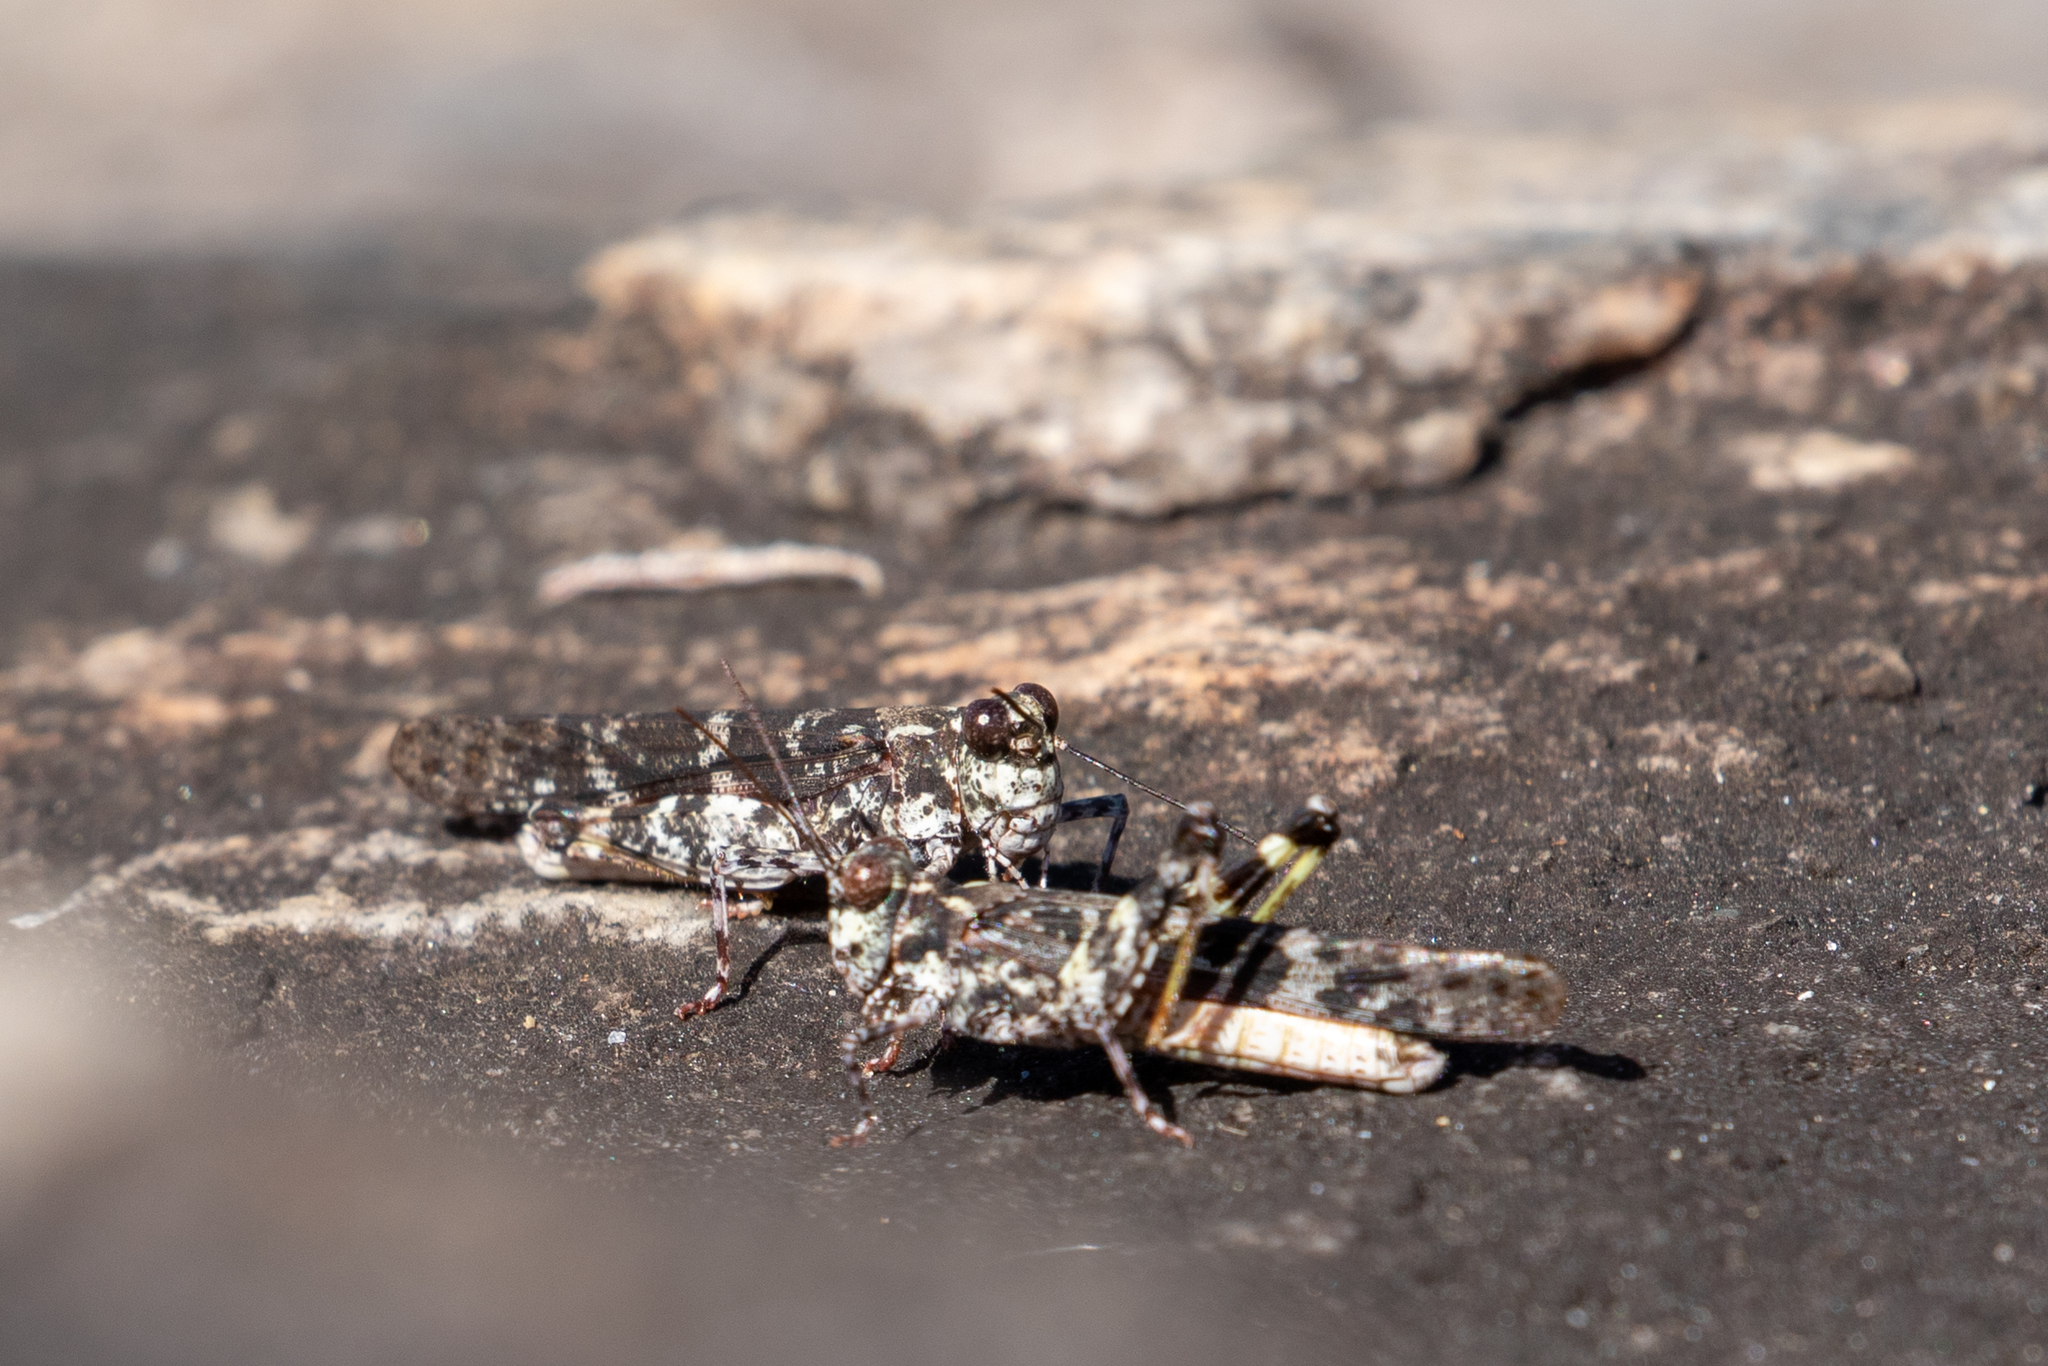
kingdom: Animalia
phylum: Arthropoda
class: Insecta
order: Orthoptera
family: Acrididae
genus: Trimerotropis
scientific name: Trimerotropis saxatilis
